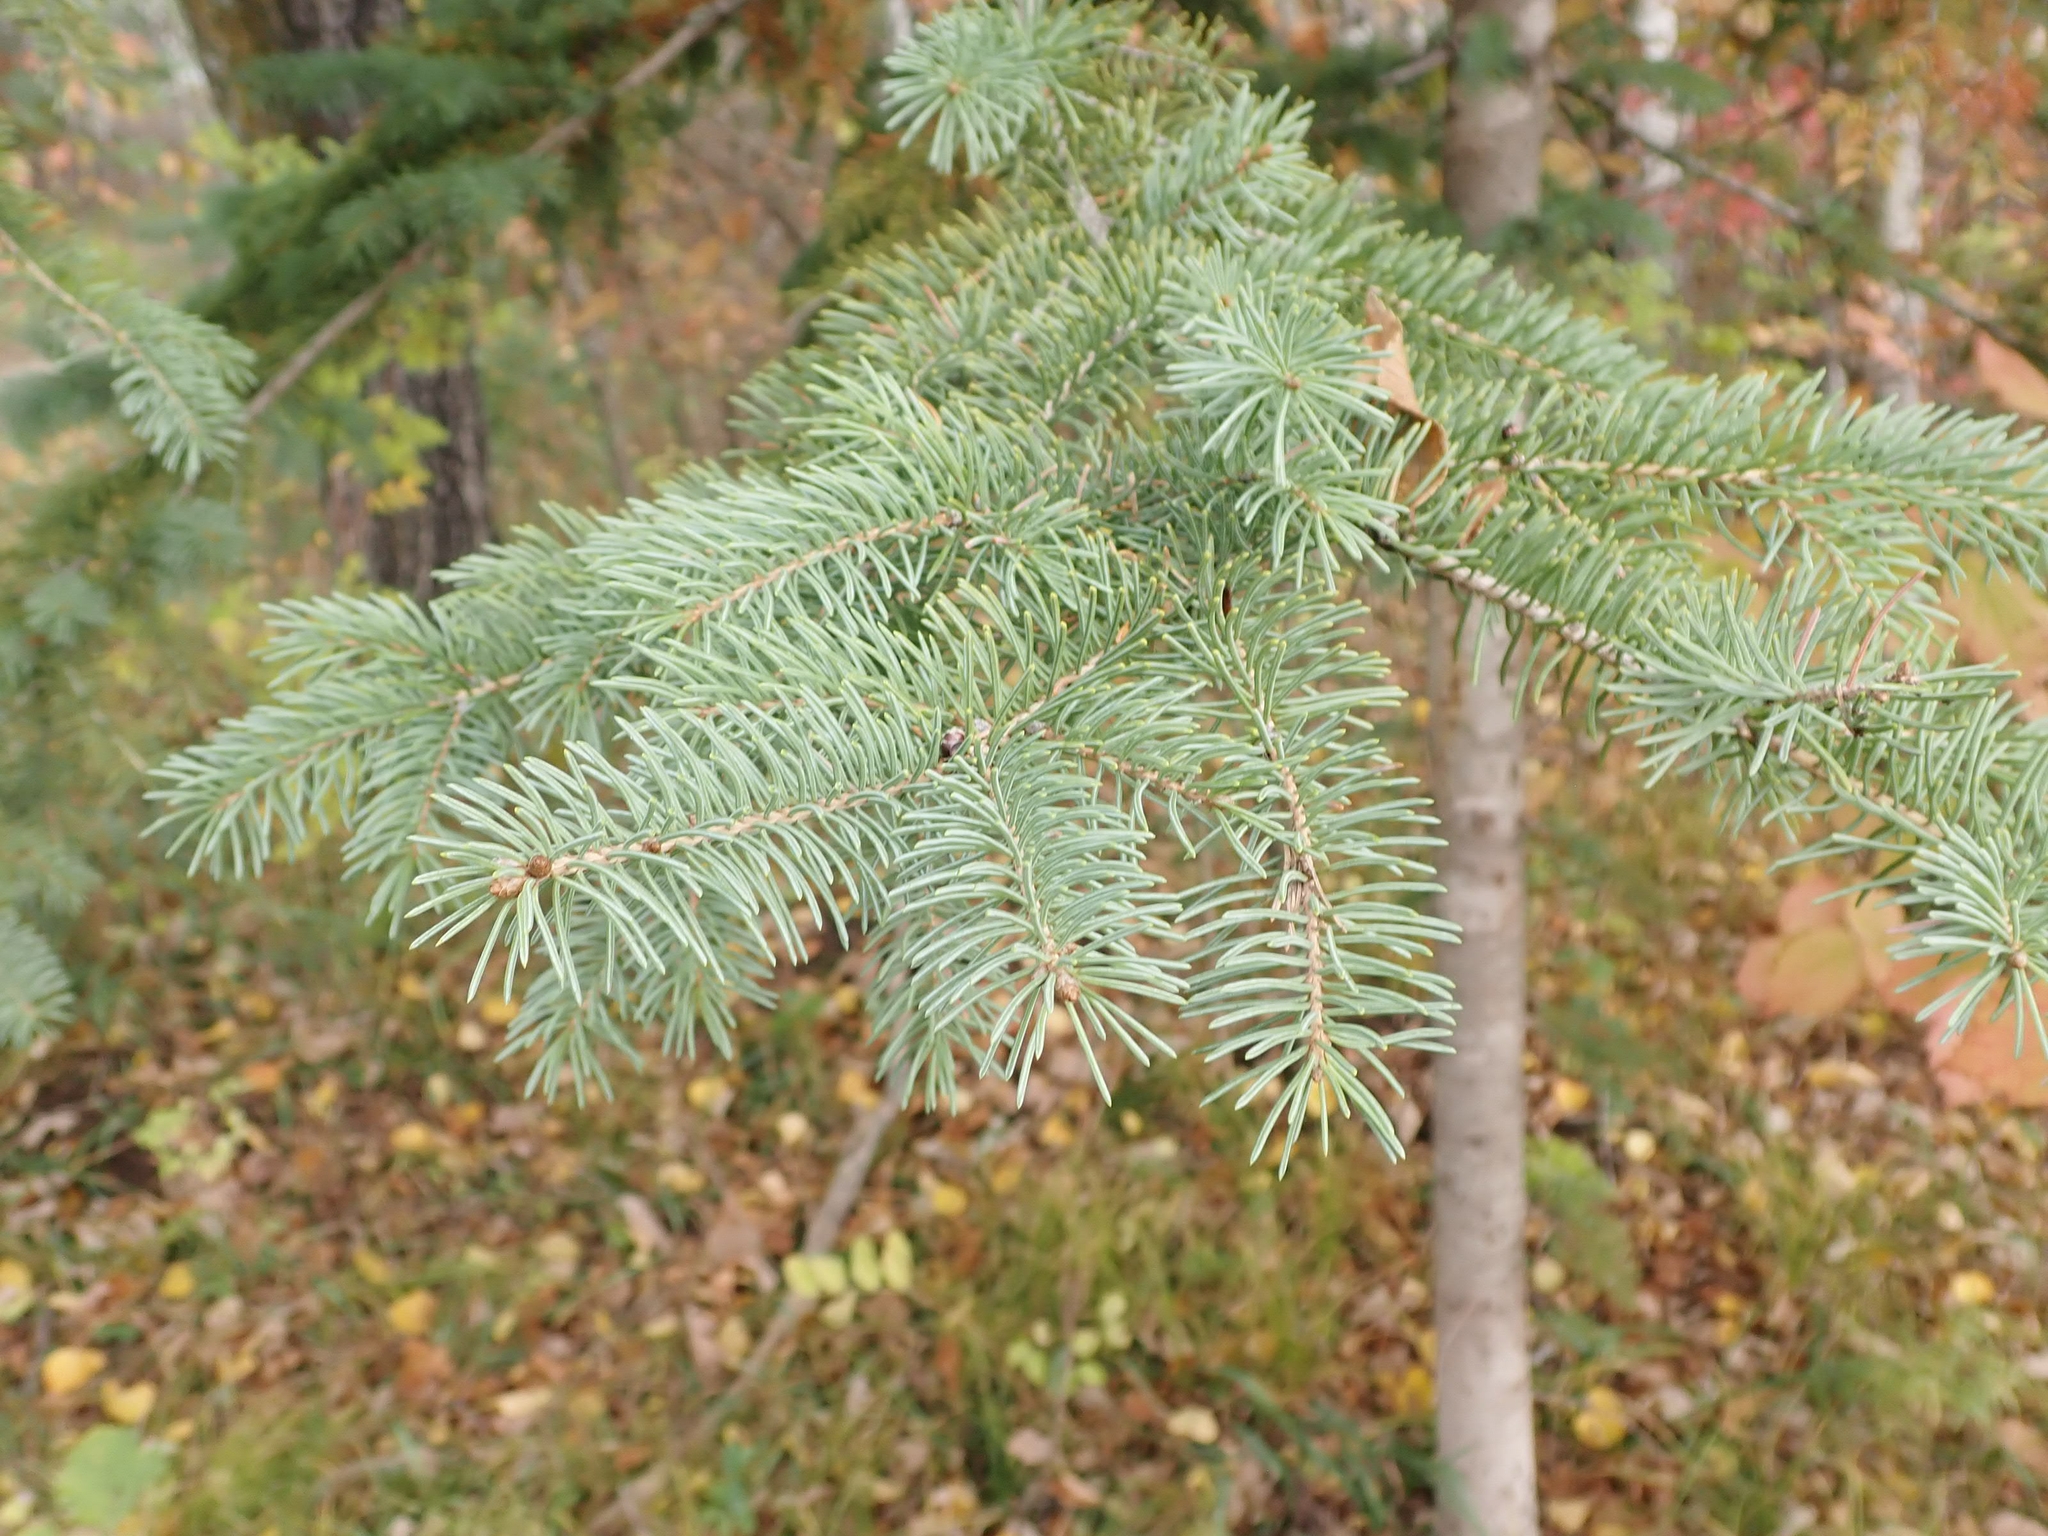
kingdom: Plantae
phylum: Tracheophyta
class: Pinopsida
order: Pinales
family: Pinaceae
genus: Picea
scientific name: Picea glauca
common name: White spruce
